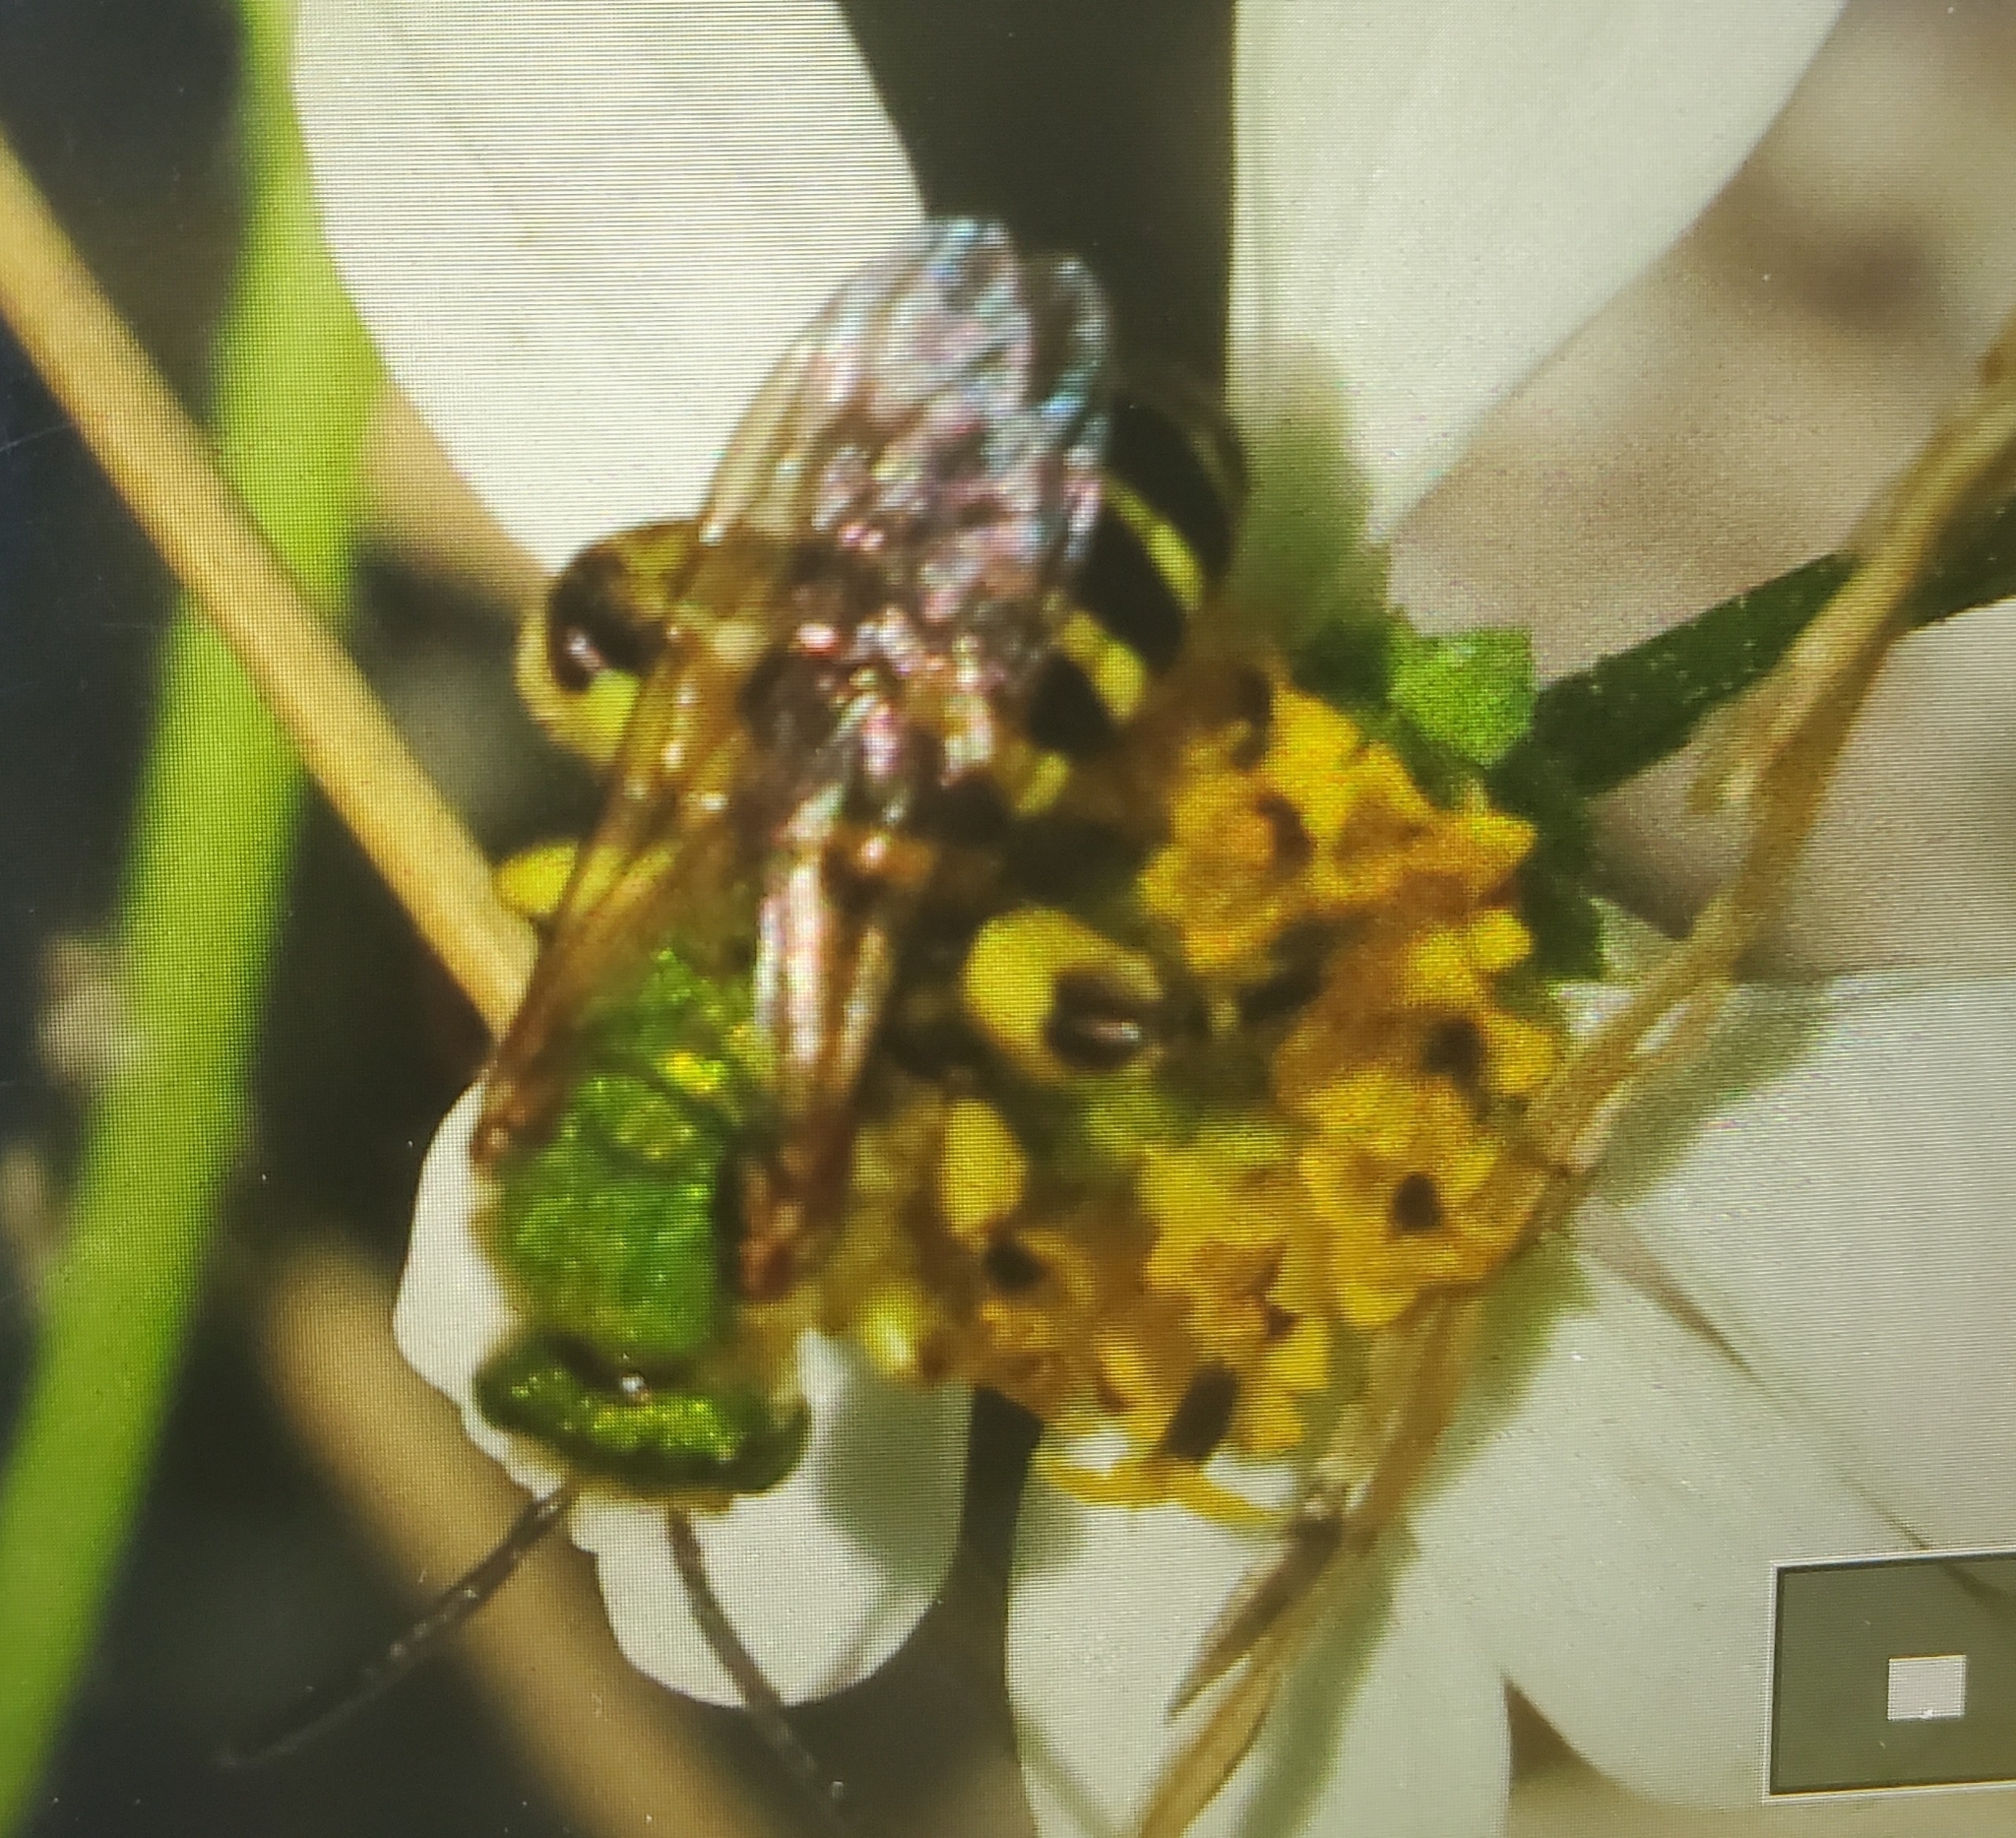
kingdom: Animalia
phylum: Arthropoda
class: Insecta
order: Hymenoptera
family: Halictidae
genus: Agapostemon
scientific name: Agapostemon splendens
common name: Brown-winged striped sweat bee
